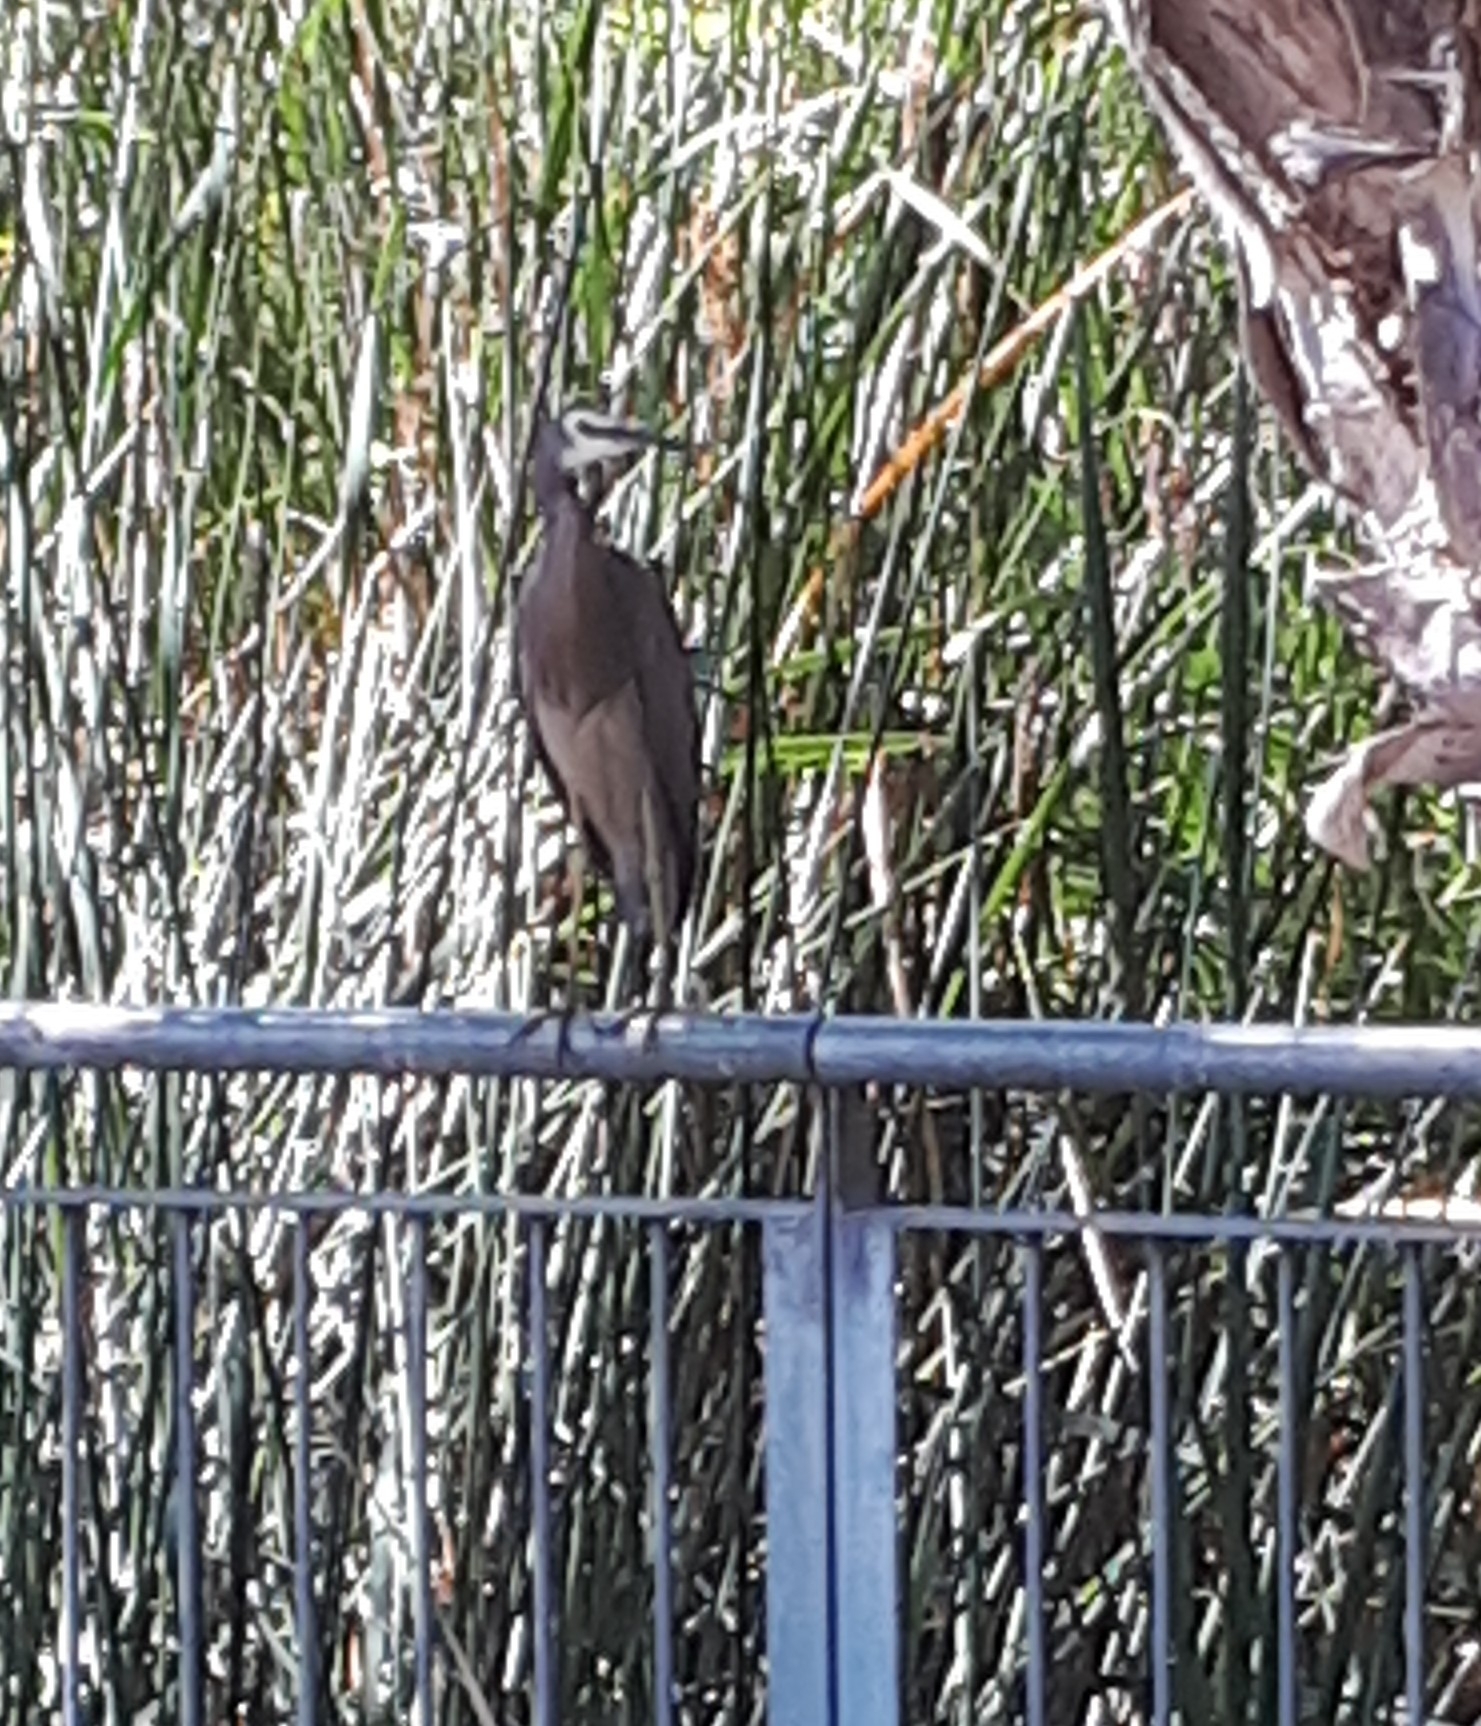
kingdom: Animalia
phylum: Chordata
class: Aves
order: Pelecaniformes
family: Ardeidae
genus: Egretta
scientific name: Egretta novaehollandiae
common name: White-faced heron
